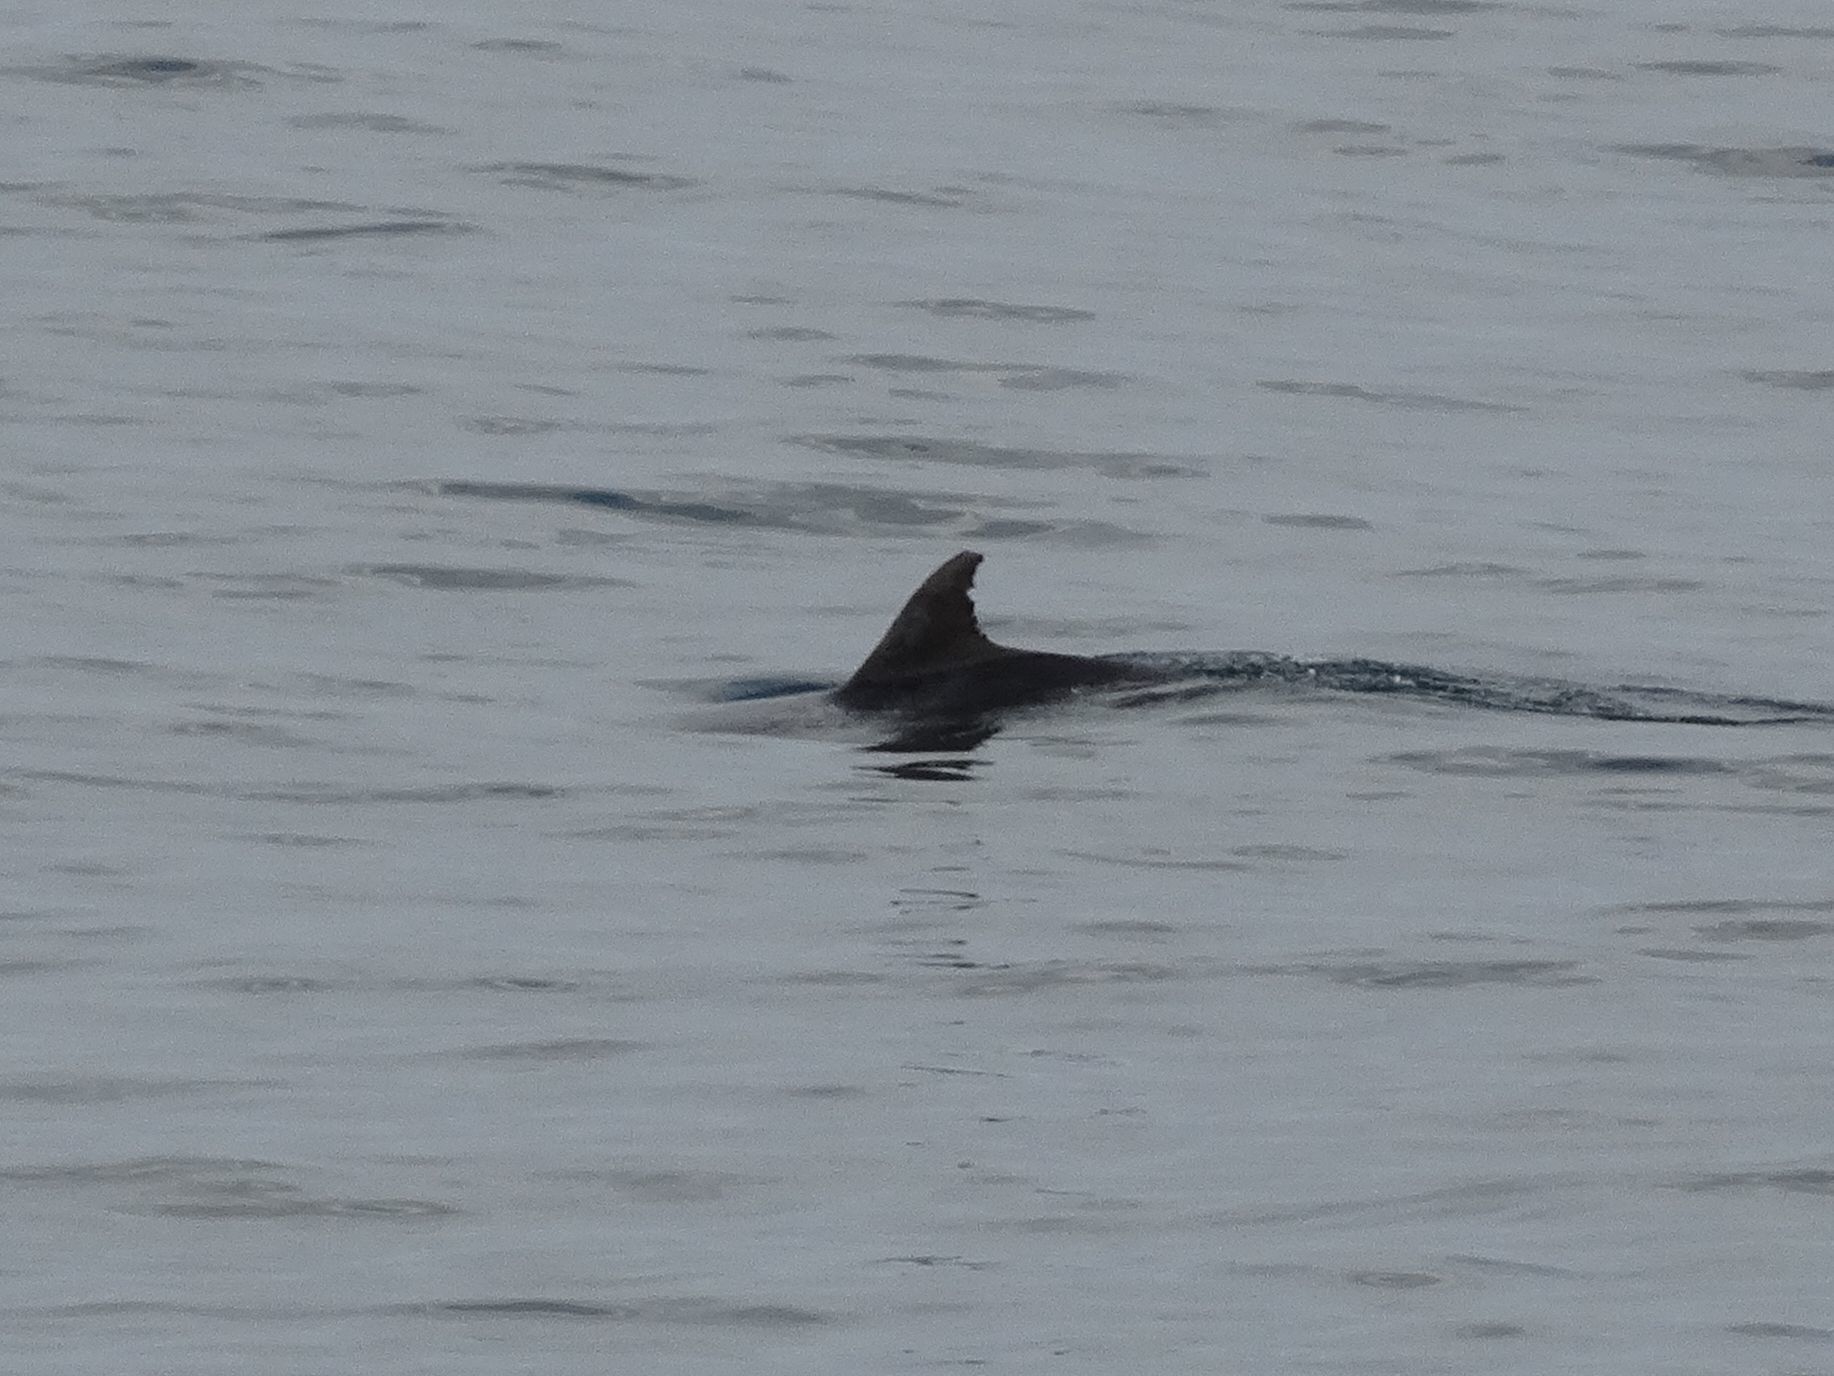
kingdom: Animalia
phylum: Chordata
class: Mammalia
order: Cetacea
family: Delphinidae
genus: Tursiops
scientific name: Tursiops truncatus
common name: Bottlenose dolphin
